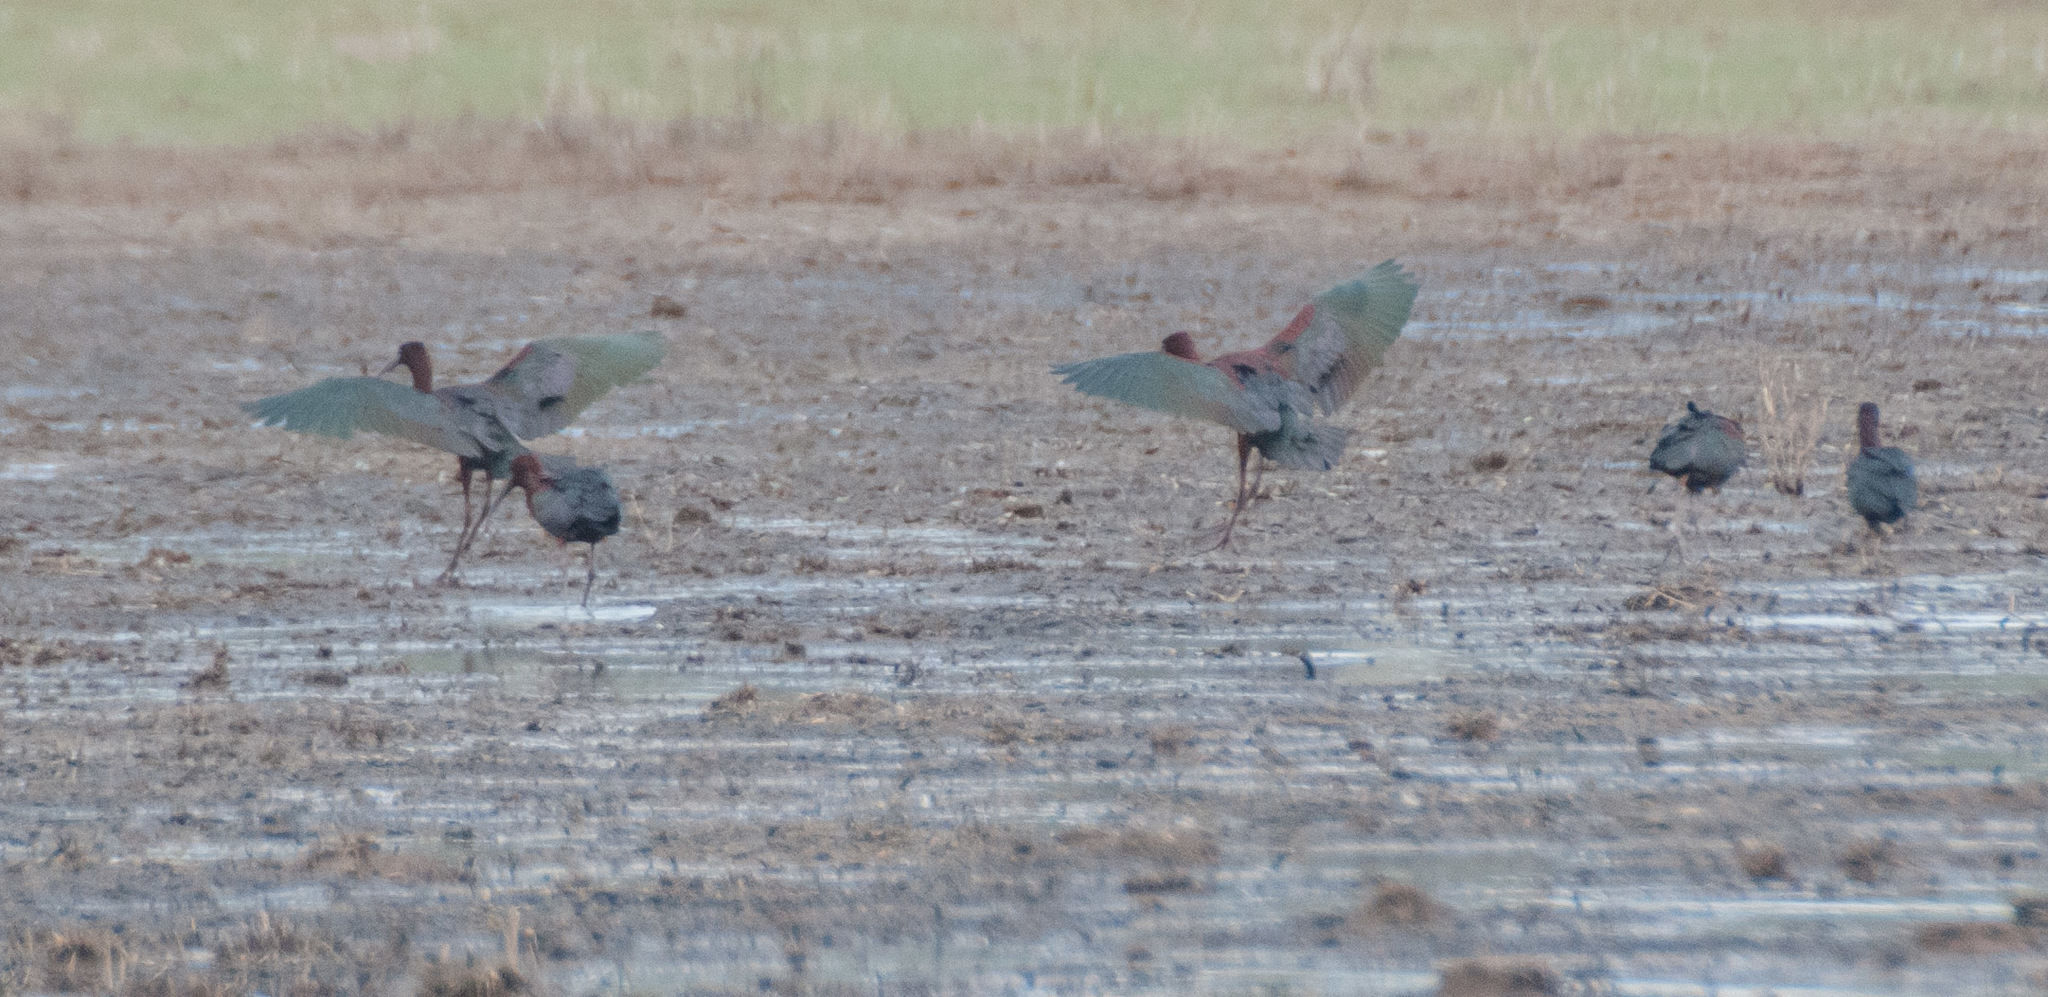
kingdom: Animalia
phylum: Chordata
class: Aves
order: Pelecaniformes
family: Threskiornithidae
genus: Plegadis
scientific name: Plegadis falcinellus
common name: Glossy ibis
